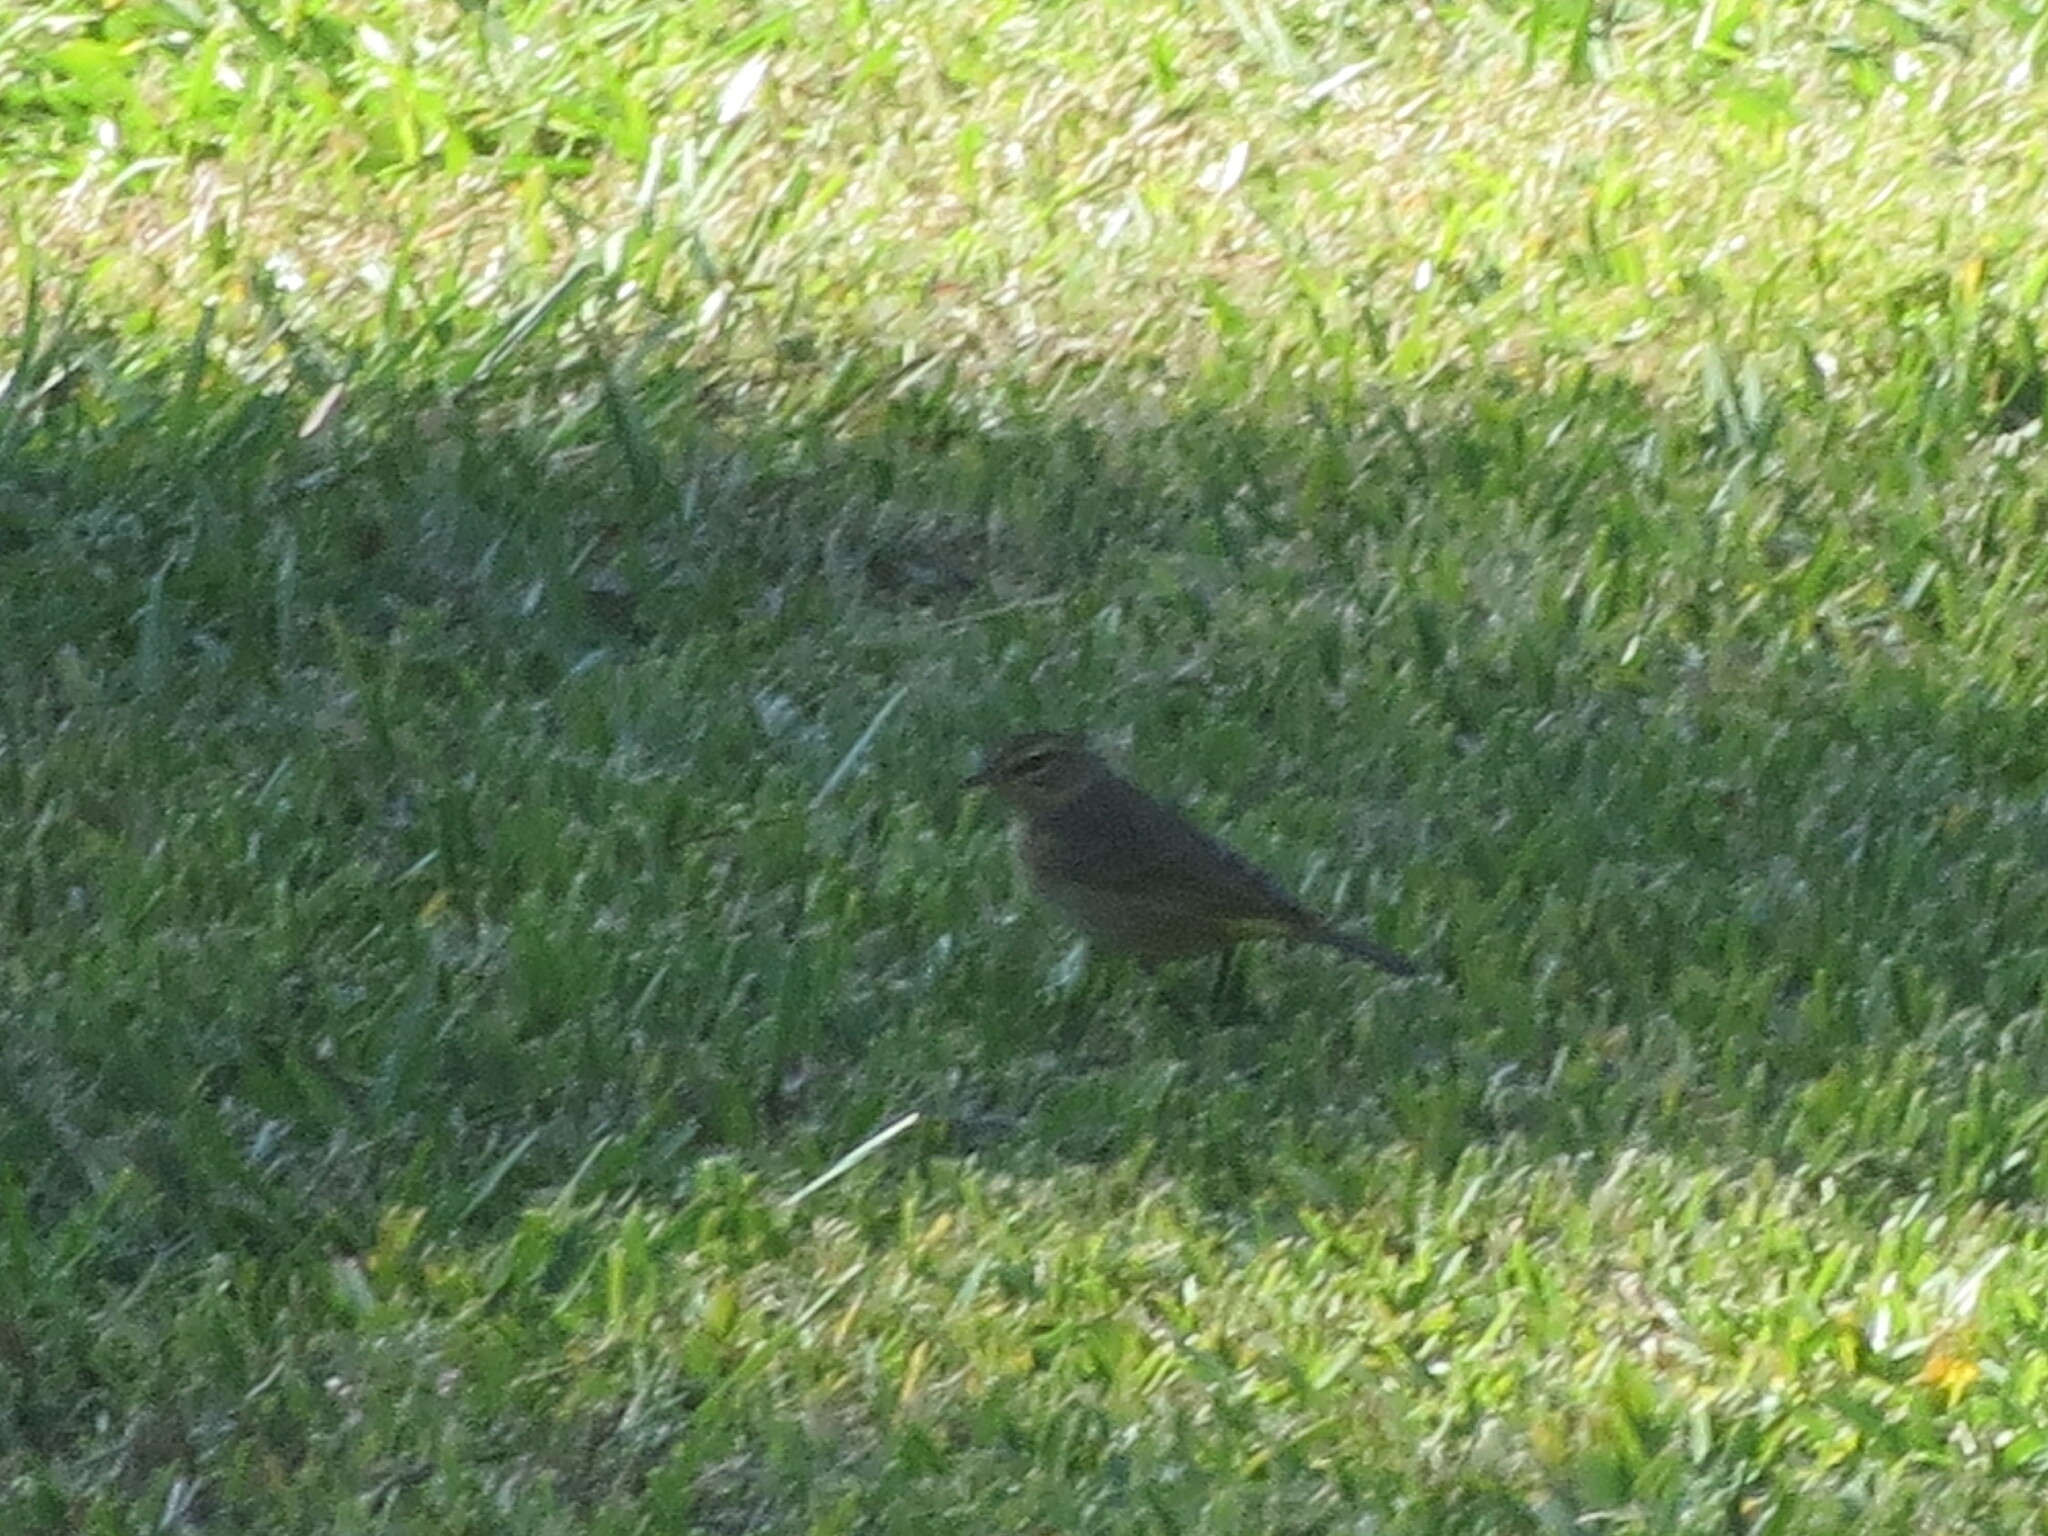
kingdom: Animalia
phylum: Chordata
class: Aves
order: Passeriformes
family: Parulidae
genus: Setophaga
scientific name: Setophaga palmarum
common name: Palm warbler
